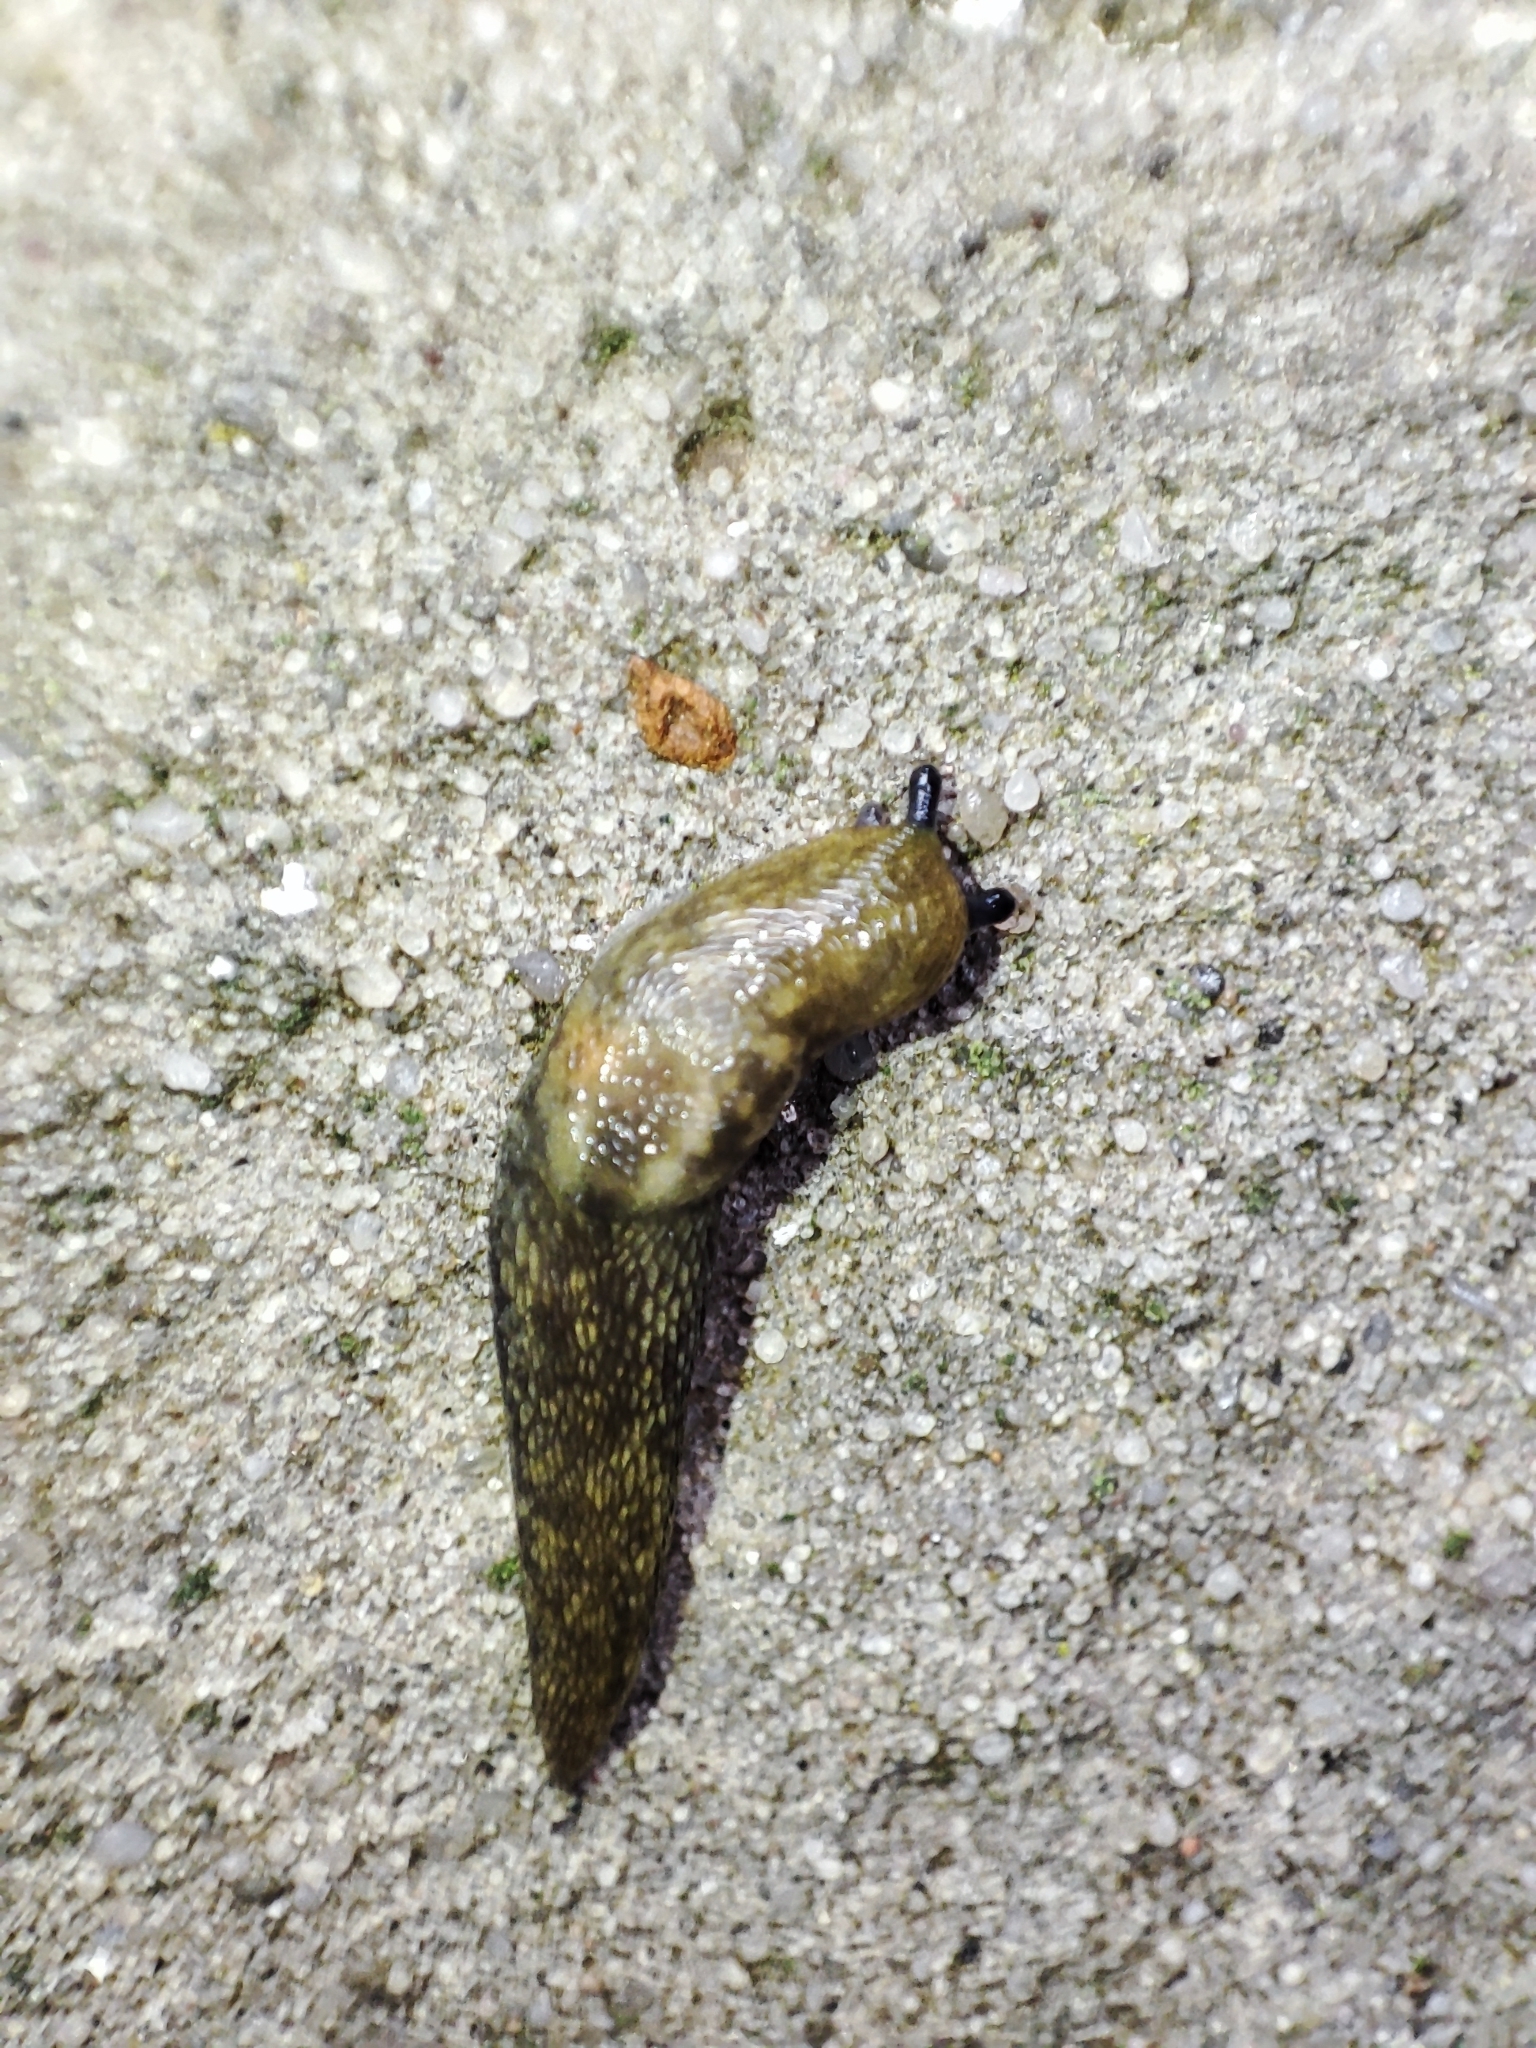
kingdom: Animalia
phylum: Mollusca
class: Gastropoda
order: Stylommatophora
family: Limacidae
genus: Limacus
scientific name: Limacus
